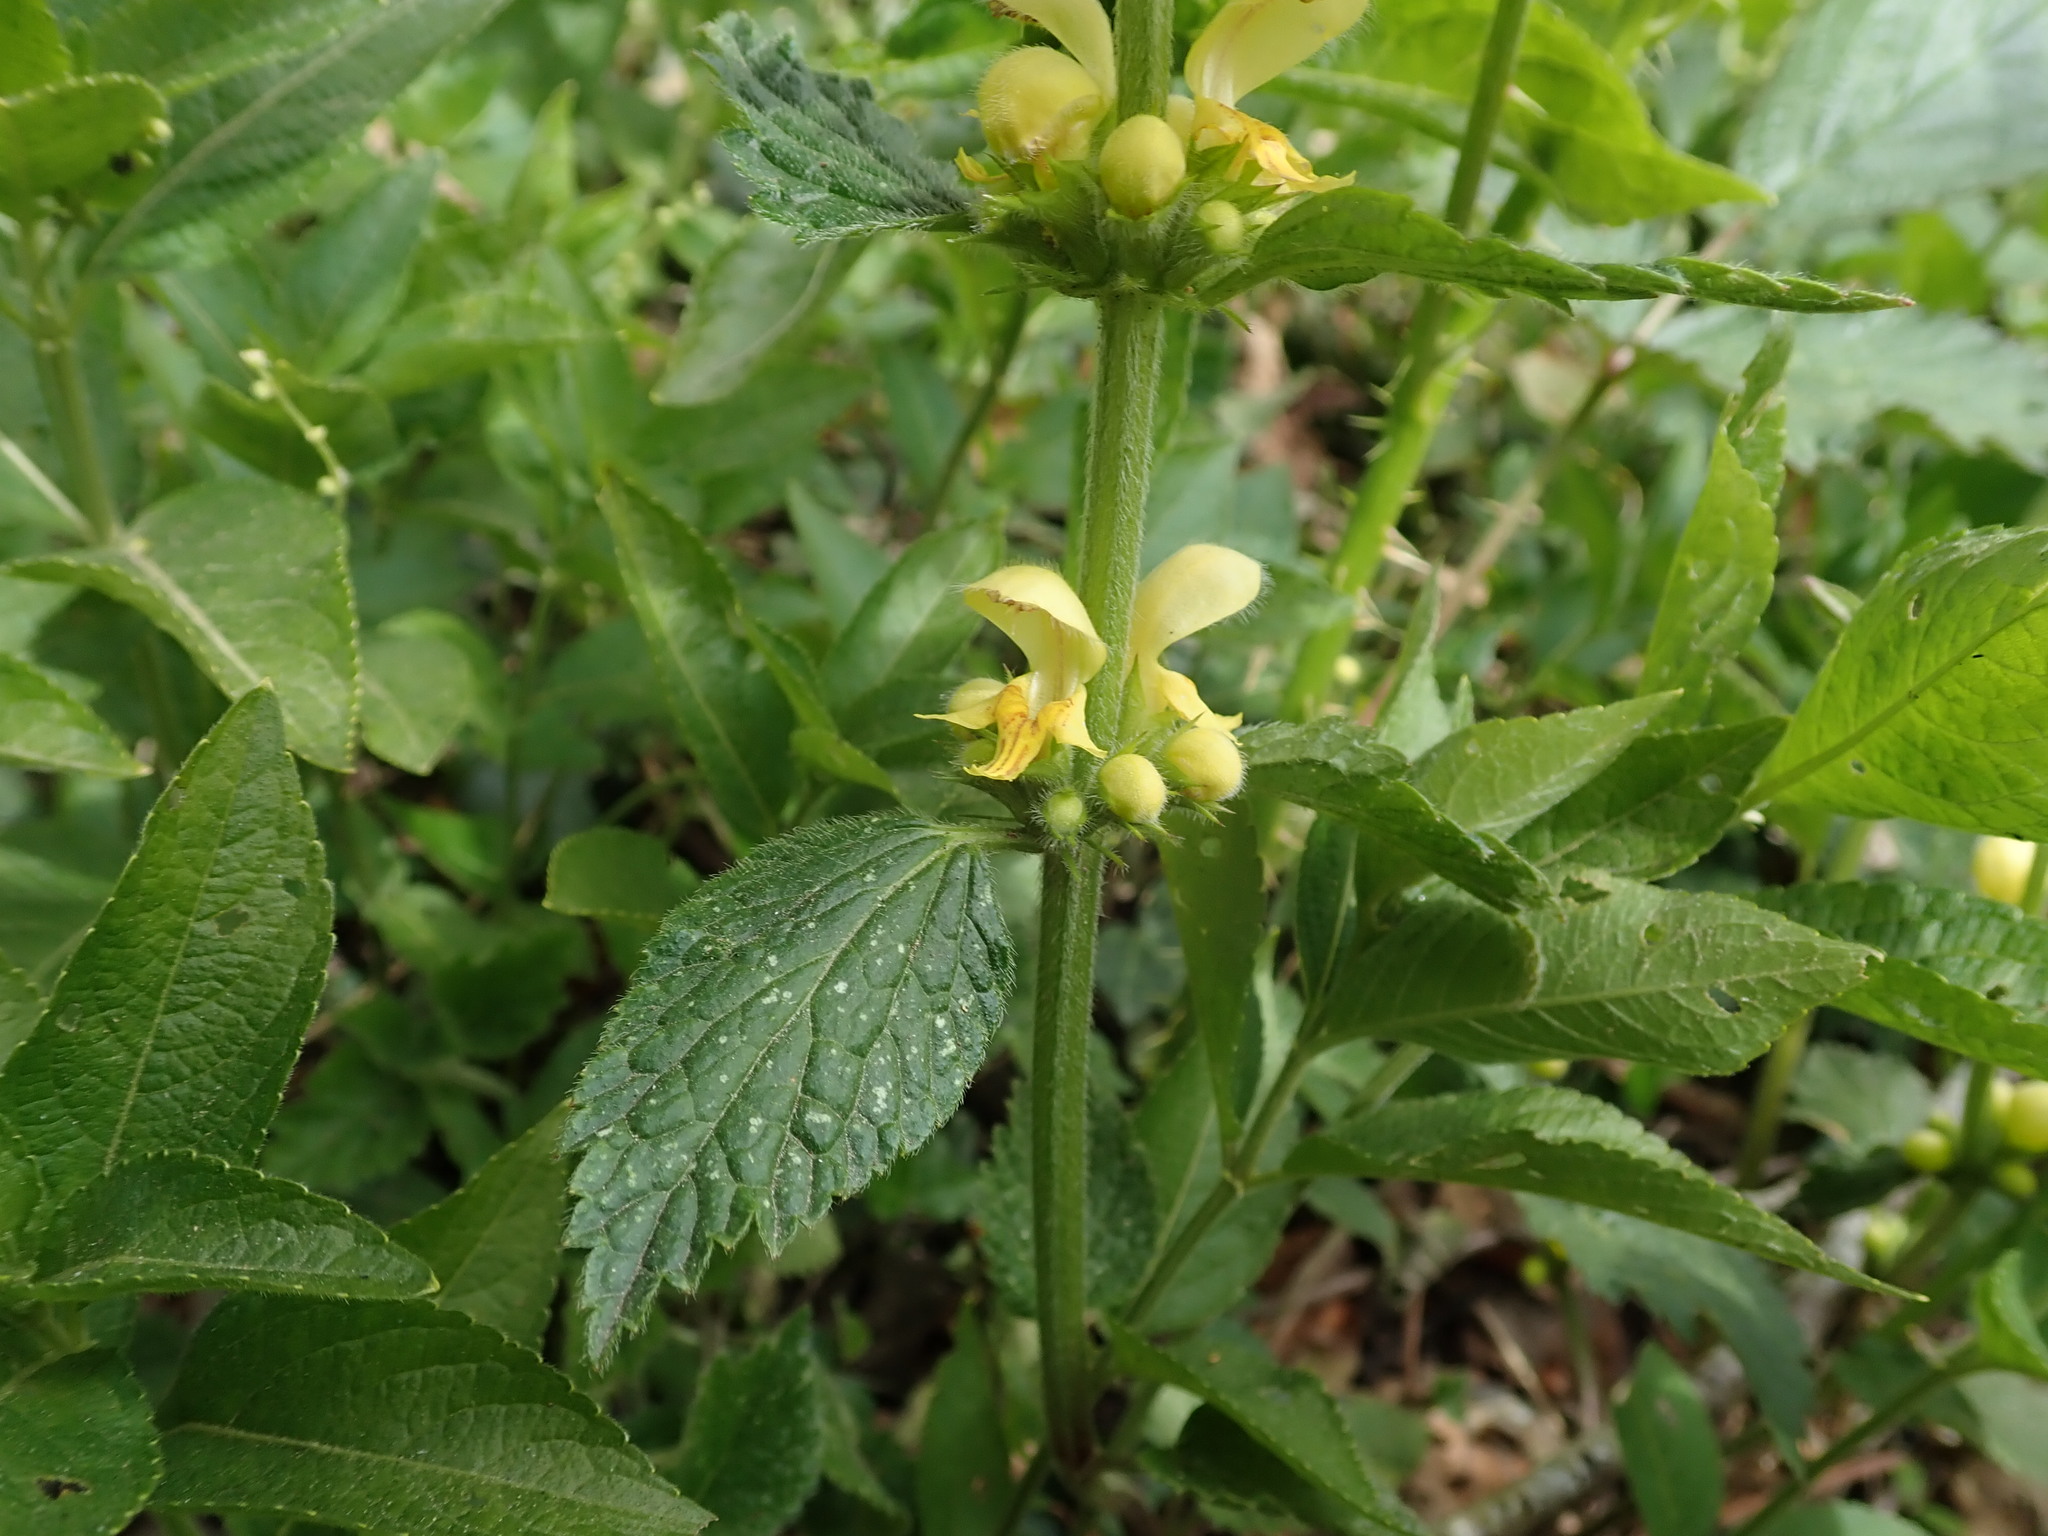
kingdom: Plantae
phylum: Tracheophyta
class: Magnoliopsida
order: Lamiales
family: Lamiaceae
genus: Lamium
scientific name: Lamium galeobdolon
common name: Yellow archangel
